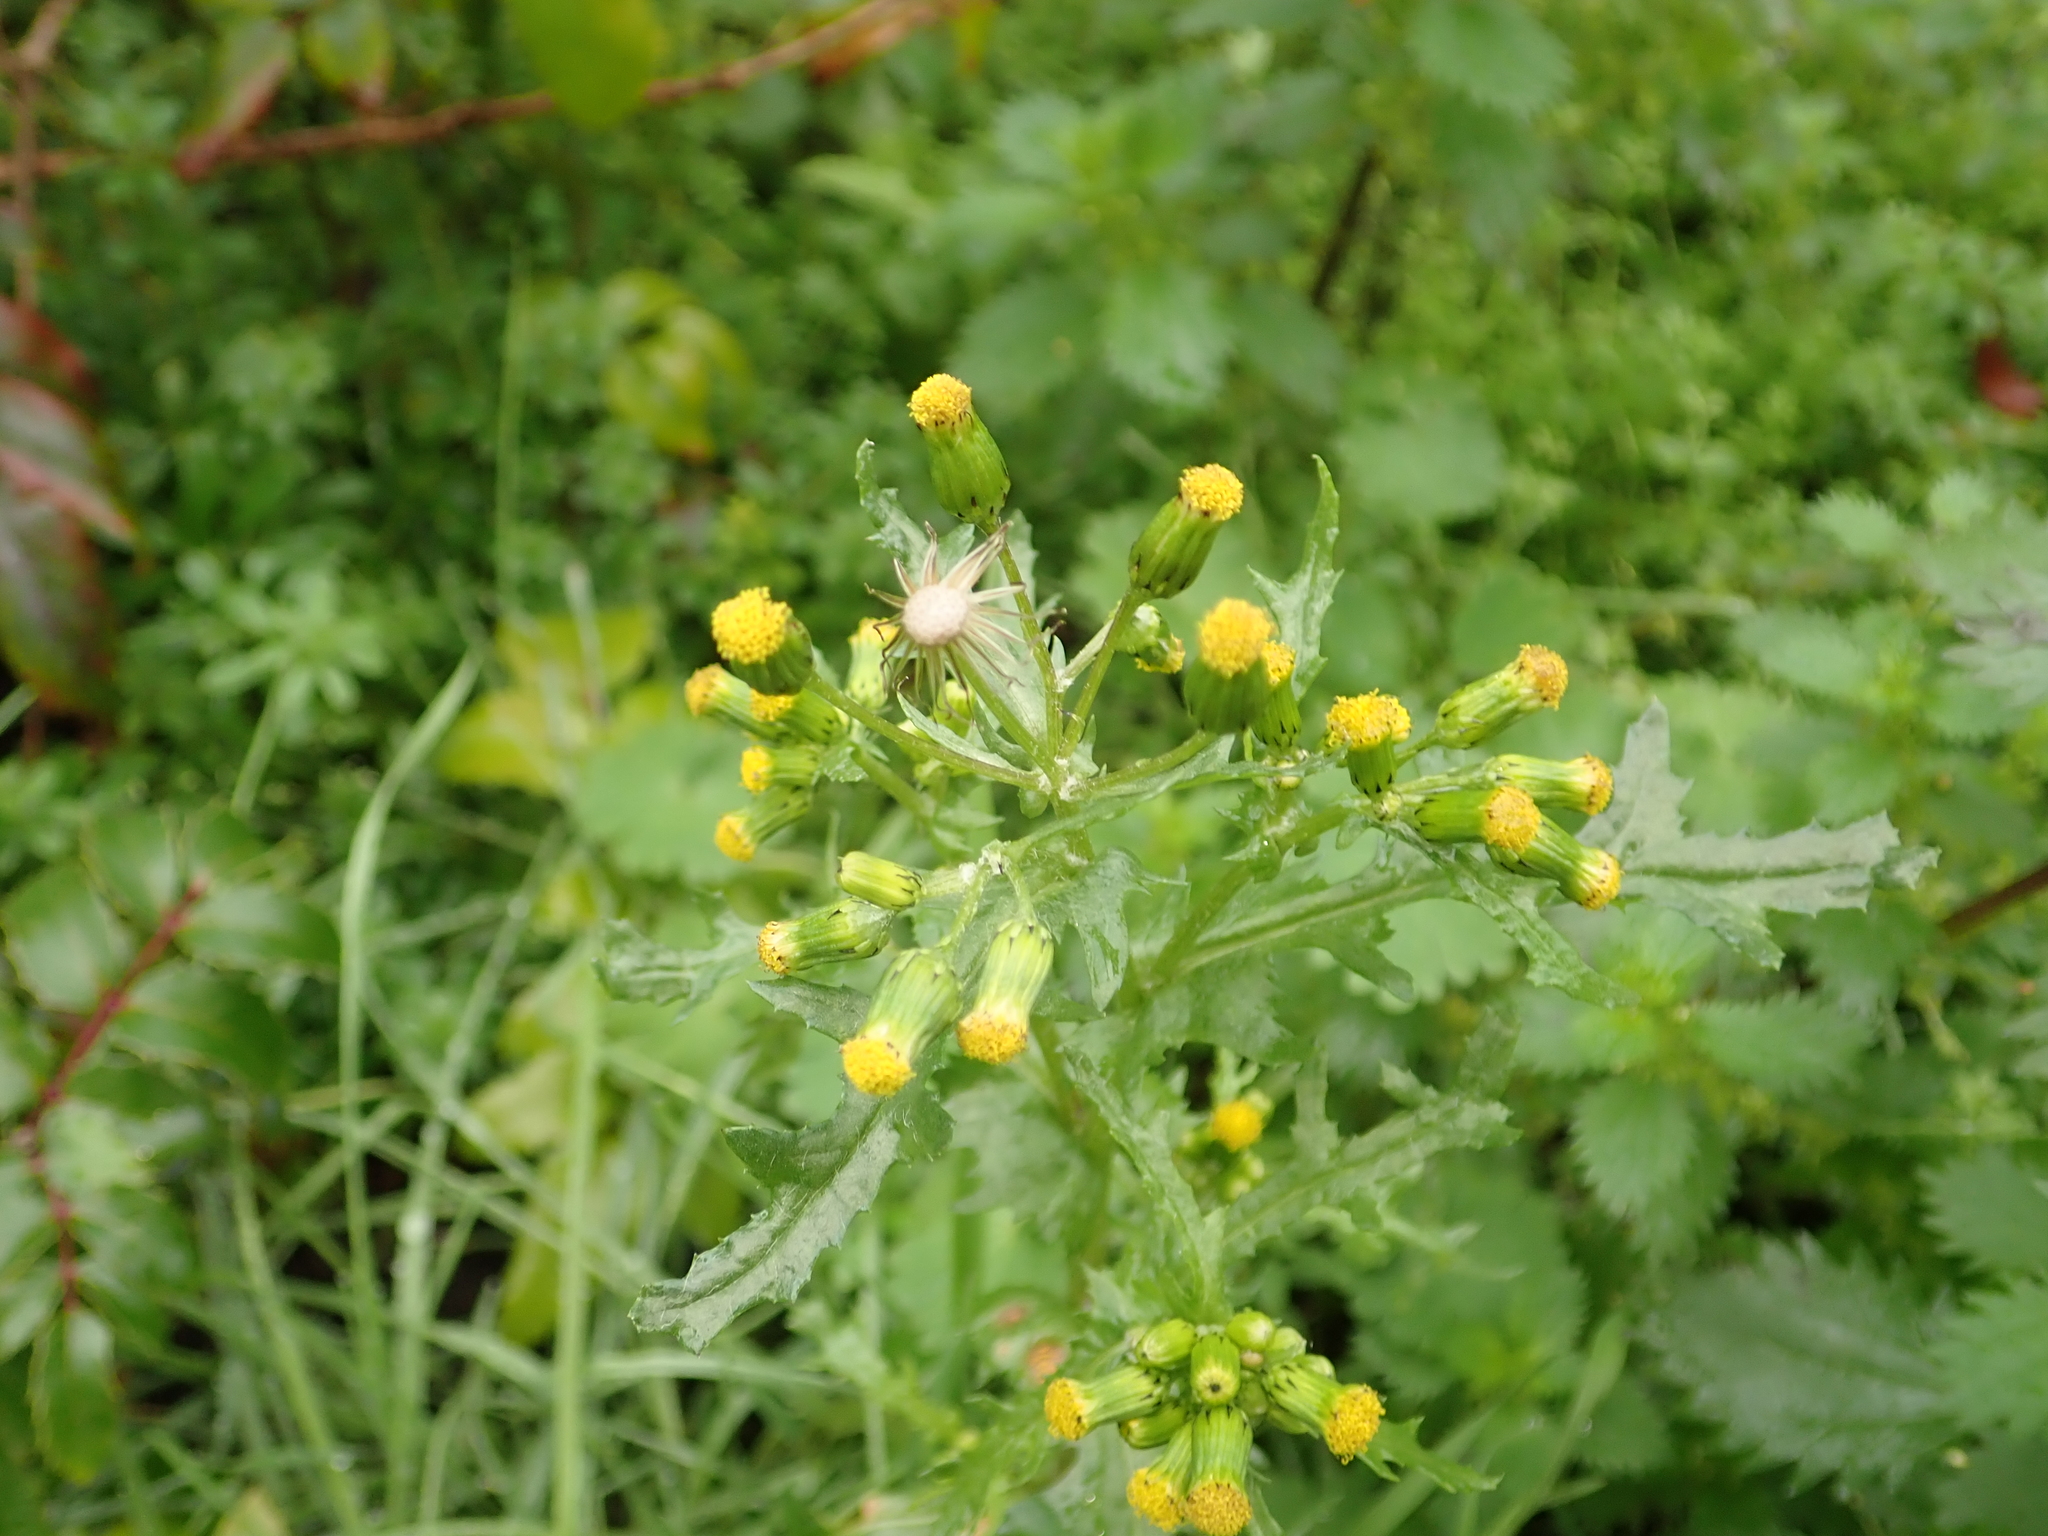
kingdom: Plantae
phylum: Tracheophyta
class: Magnoliopsida
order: Asterales
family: Asteraceae
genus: Senecio
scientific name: Senecio vulgaris
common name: Old-man-in-the-spring
